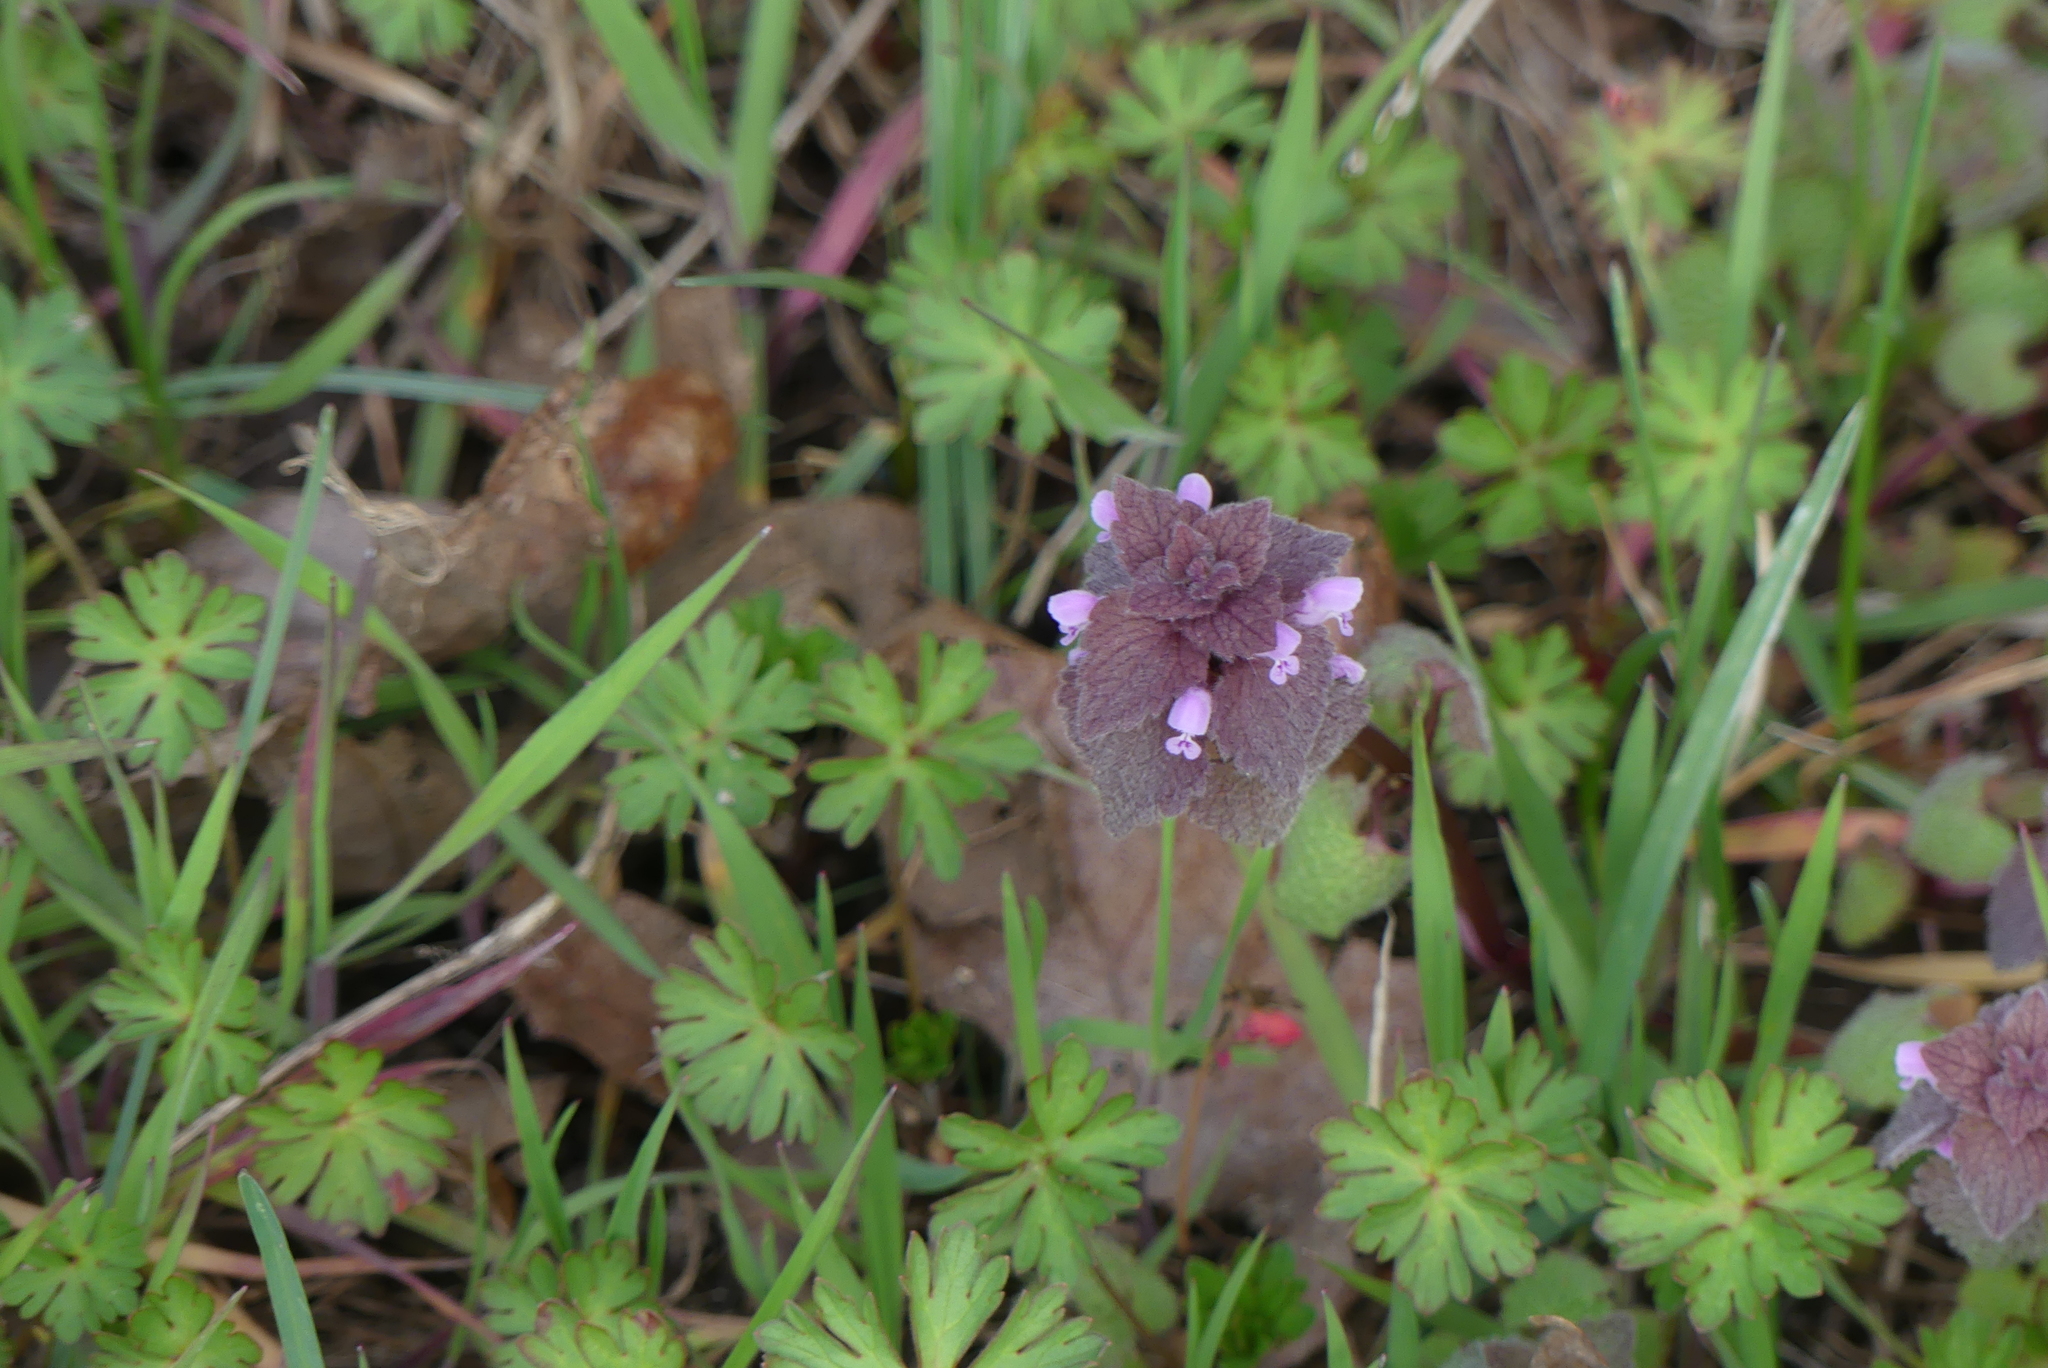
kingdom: Plantae
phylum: Tracheophyta
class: Magnoliopsida
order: Lamiales
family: Lamiaceae
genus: Lamium
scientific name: Lamium purpureum
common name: Red dead-nettle
